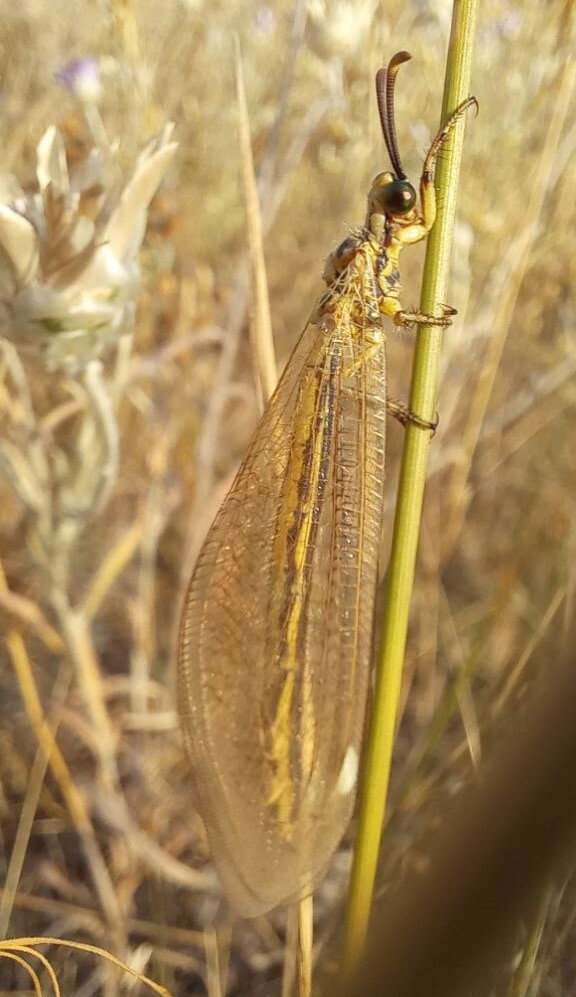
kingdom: Animalia
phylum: Arthropoda
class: Insecta
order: Neuroptera
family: Myrmeleontidae
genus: Myrmecaelurus
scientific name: Myrmecaelurus trigrammus
